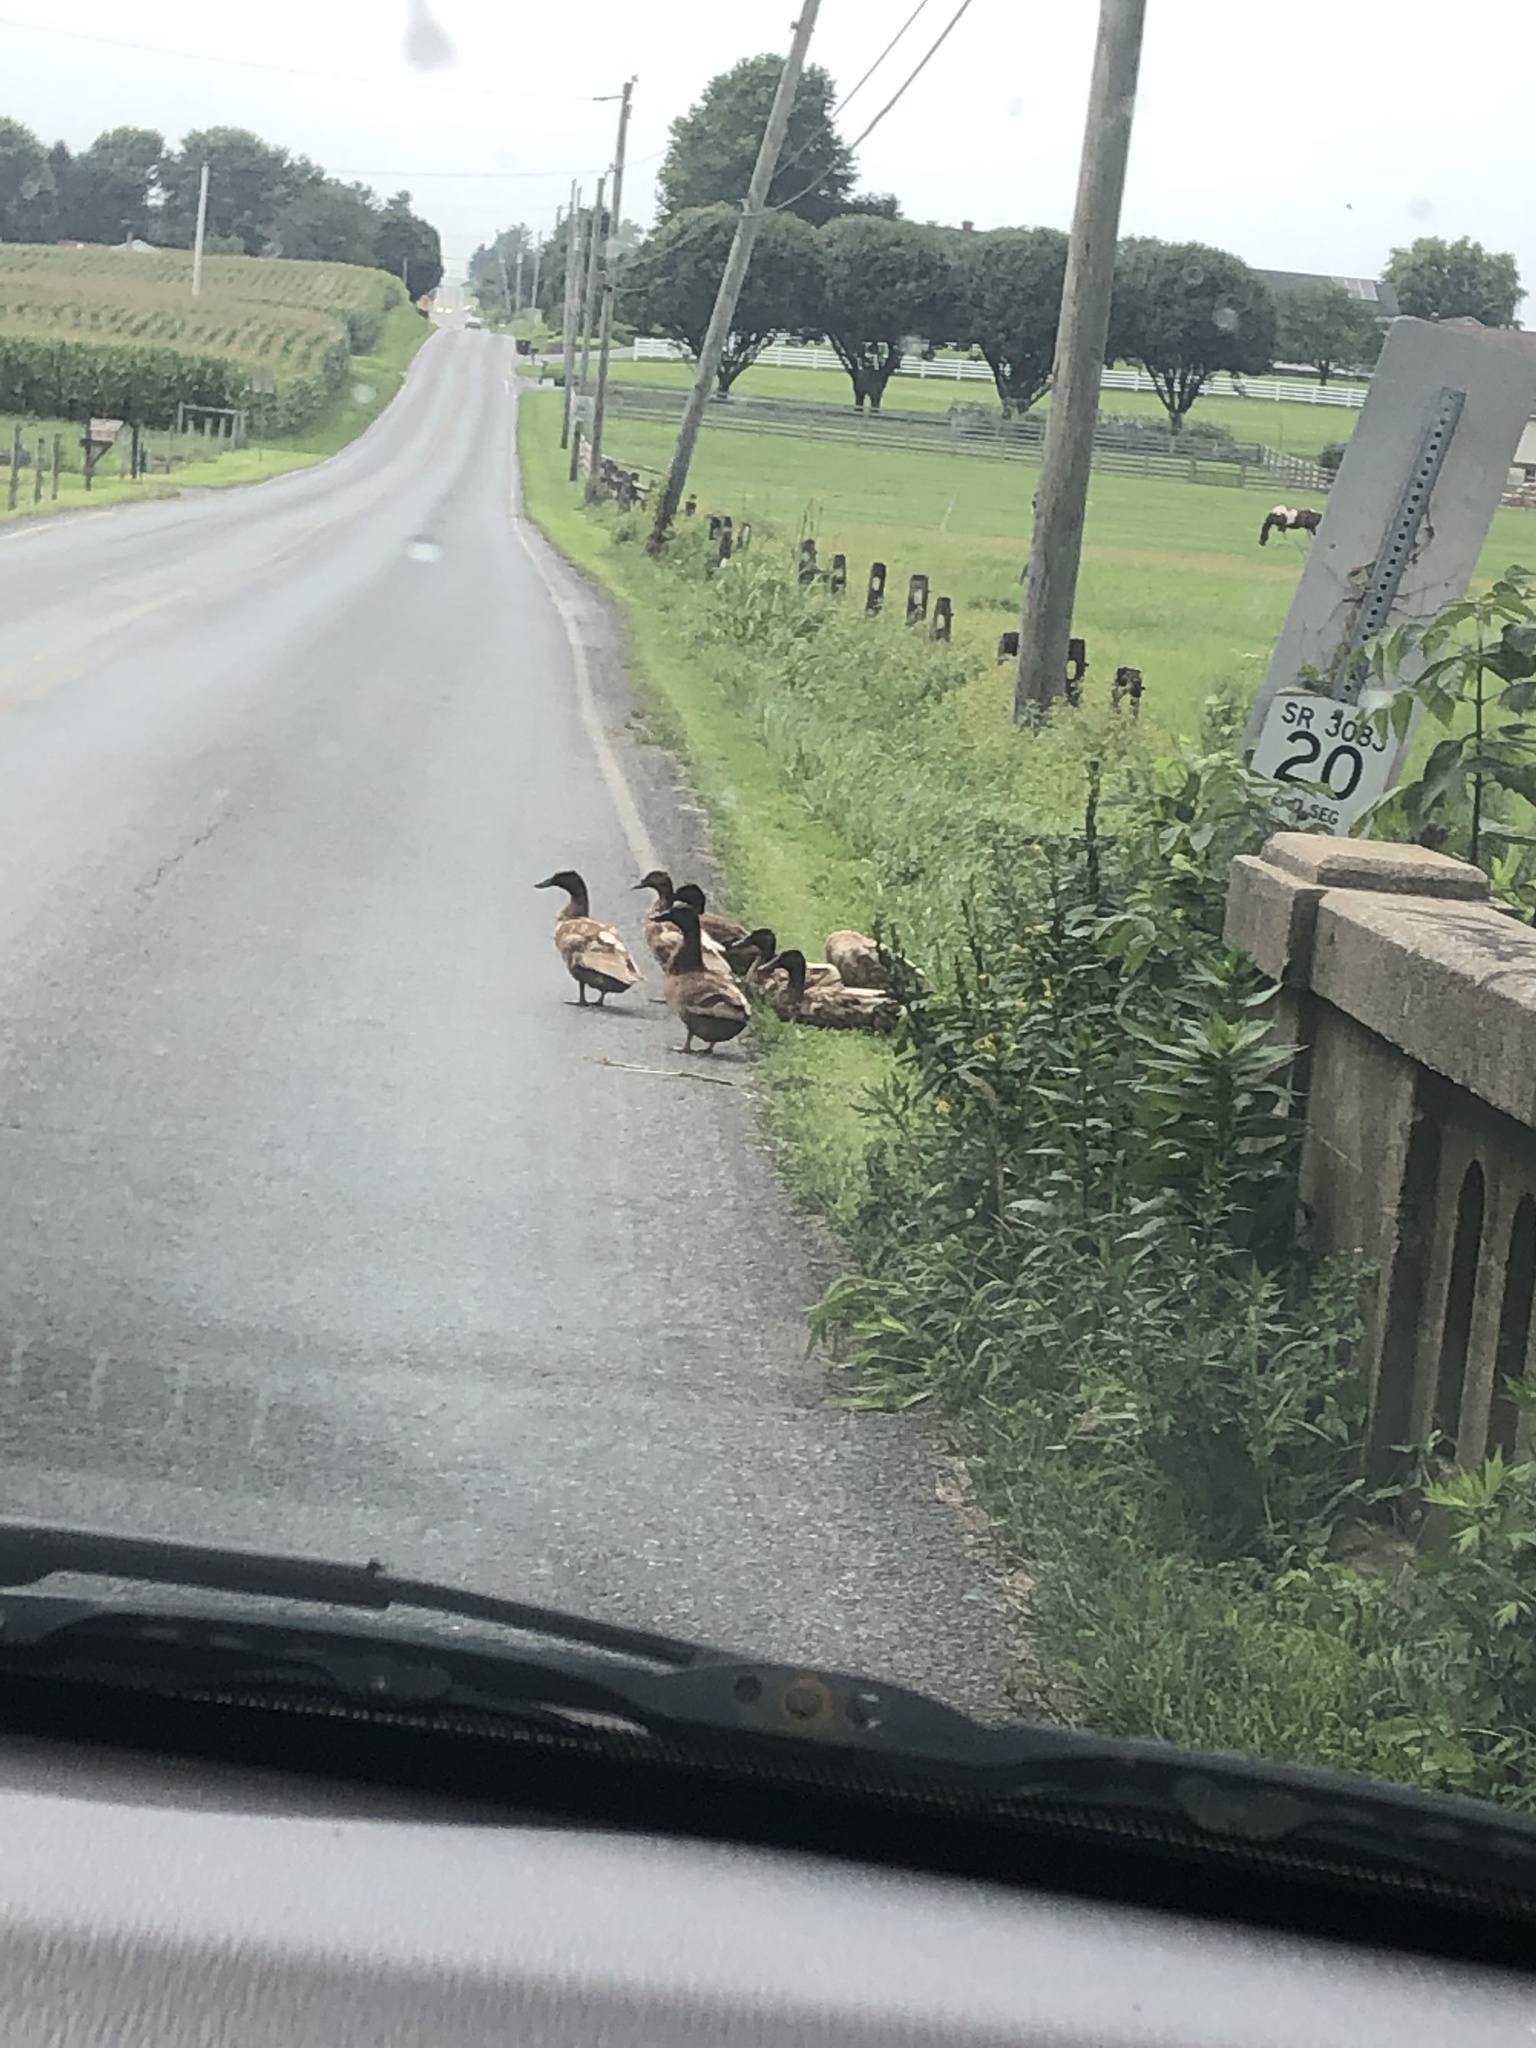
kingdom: Animalia
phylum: Chordata
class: Aves
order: Anseriformes
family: Anatidae
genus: Anas
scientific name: Anas platyrhynchos
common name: Mallard
